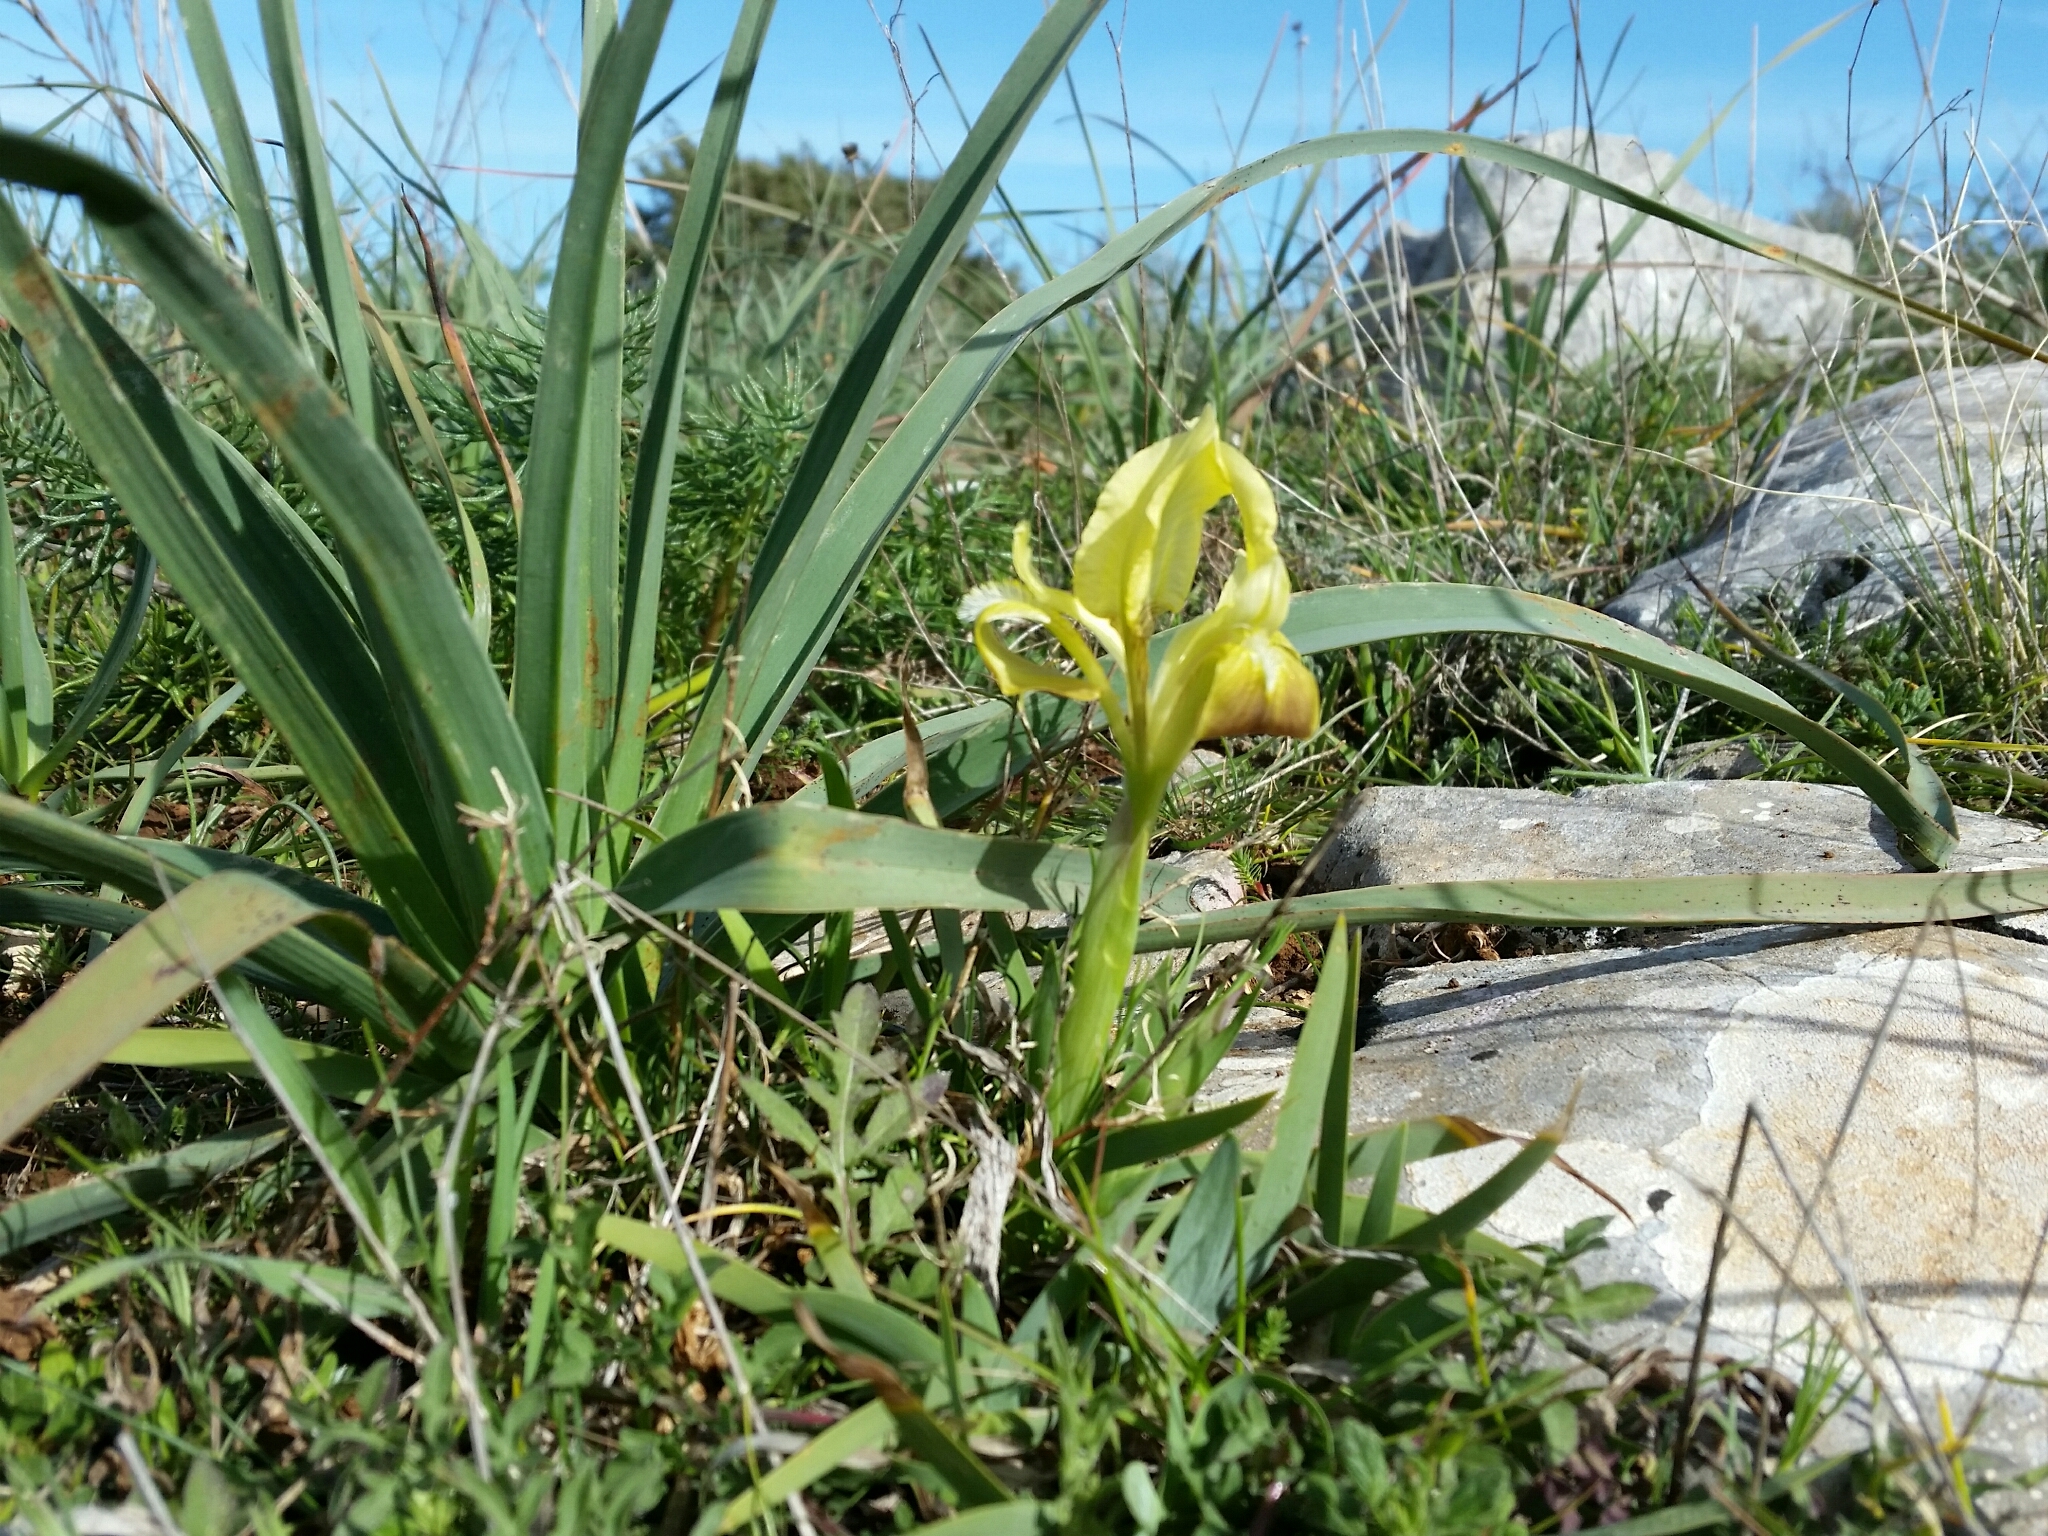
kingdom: Plantae
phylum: Tracheophyta
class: Liliopsida
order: Asparagales
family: Iridaceae
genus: Iris
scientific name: Iris pseudopumila
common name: Southern dwarf iris
